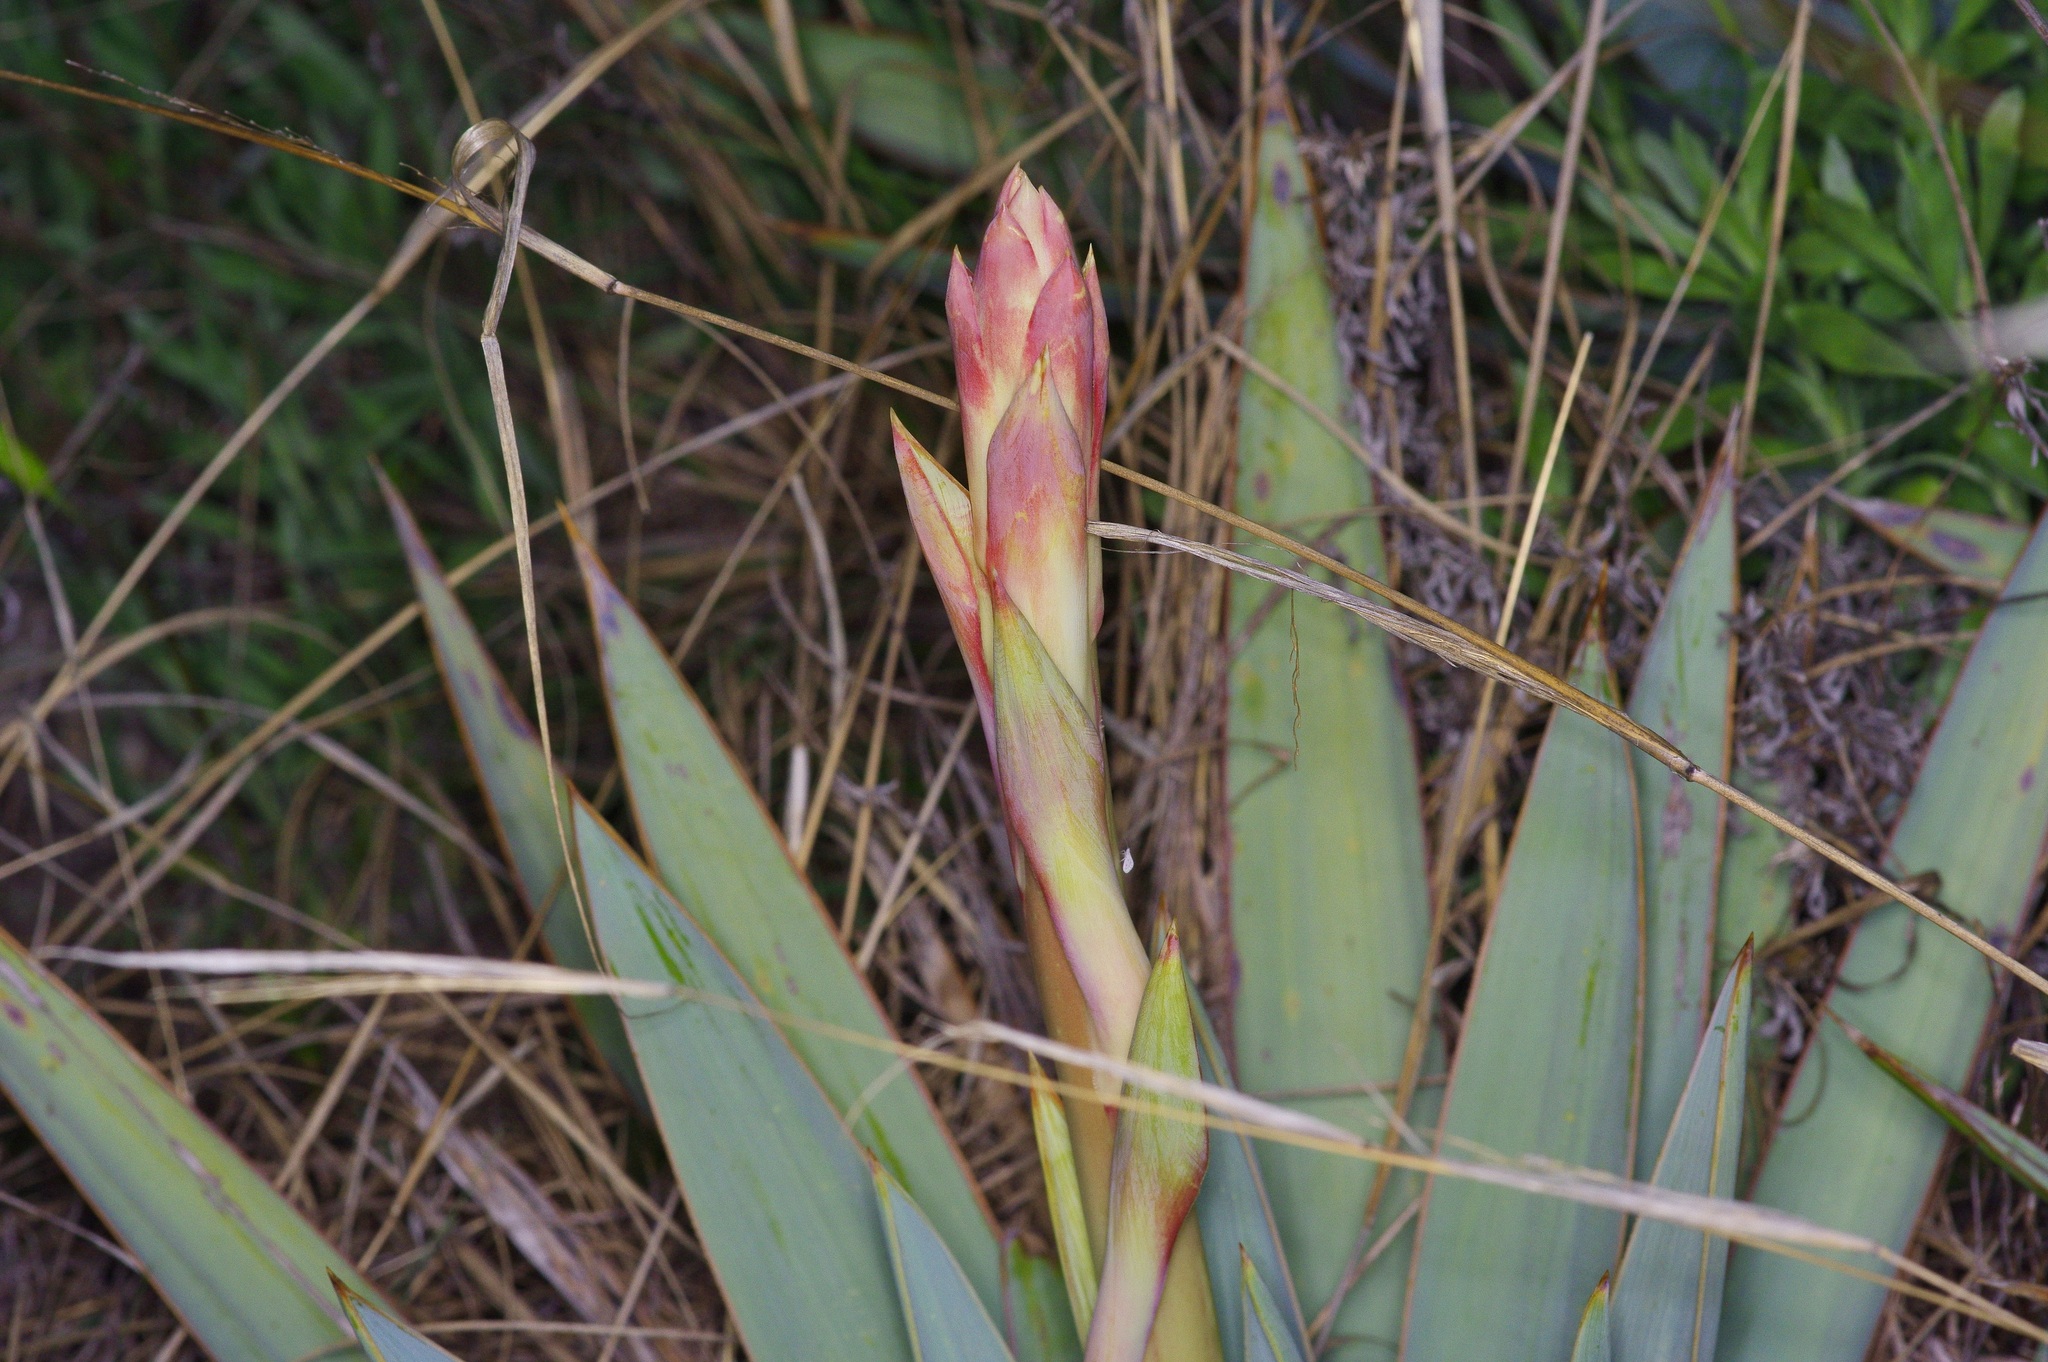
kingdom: Plantae
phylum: Tracheophyta
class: Liliopsida
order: Asparagales
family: Asparagaceae
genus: Yucca
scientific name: Yucca pallida
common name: Pale leaf yucca
